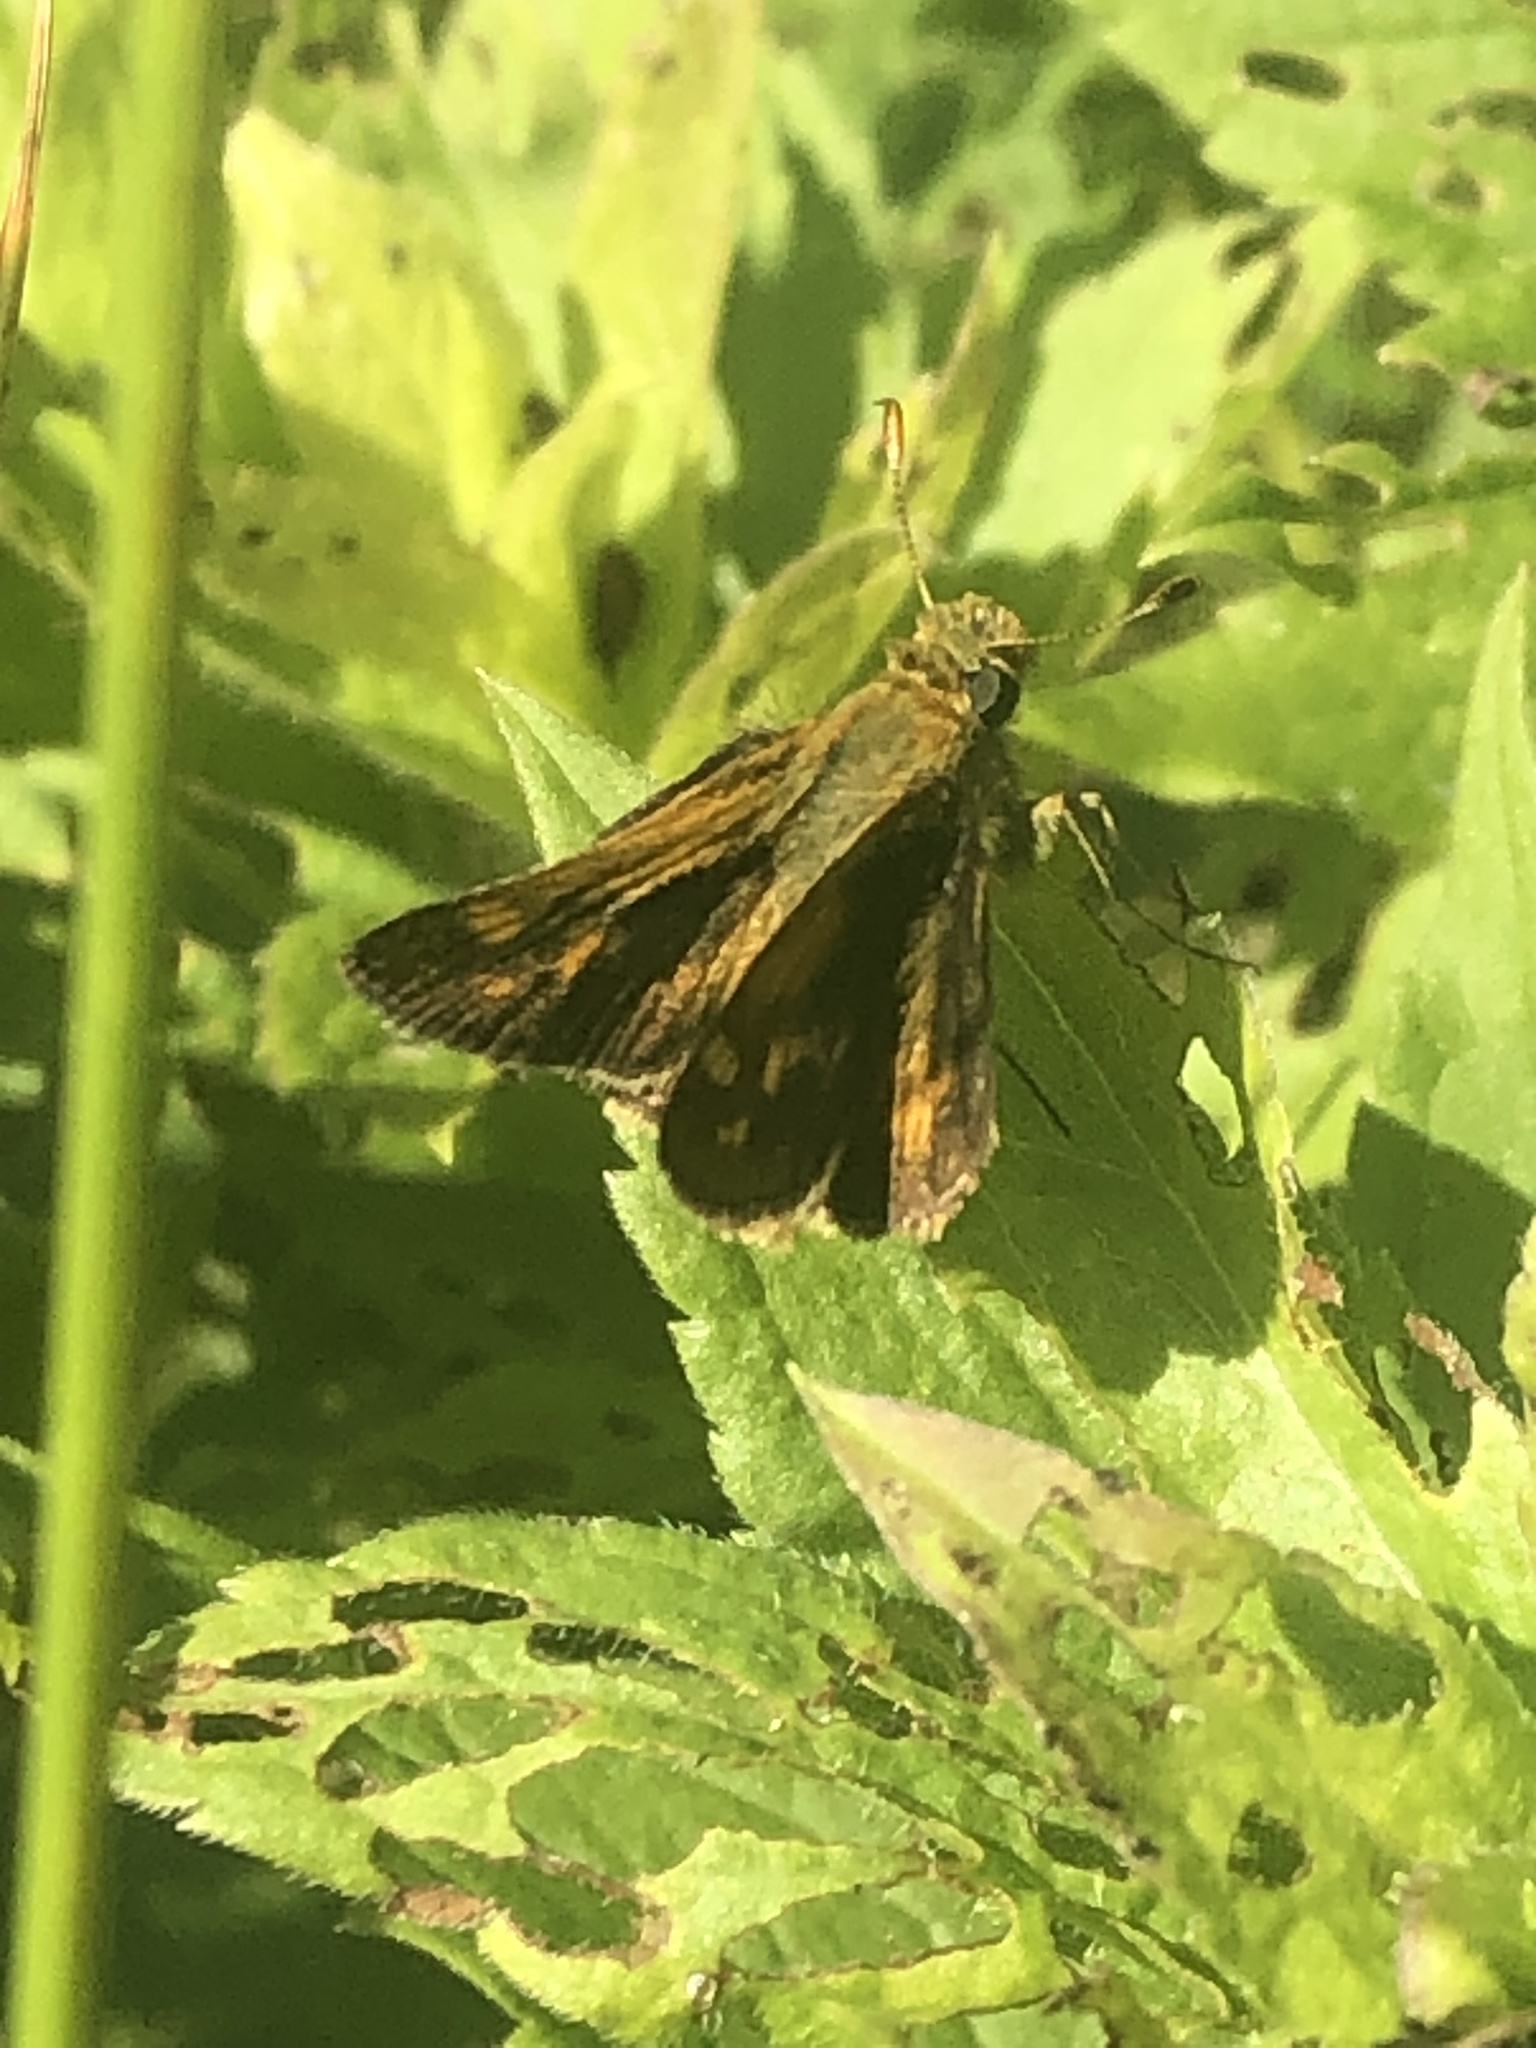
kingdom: Animalia
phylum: Arthropoda
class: Insecta
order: Lepidoptera
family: Hesperiidae
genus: Polites
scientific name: Polites coras
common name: Peck's skipper
